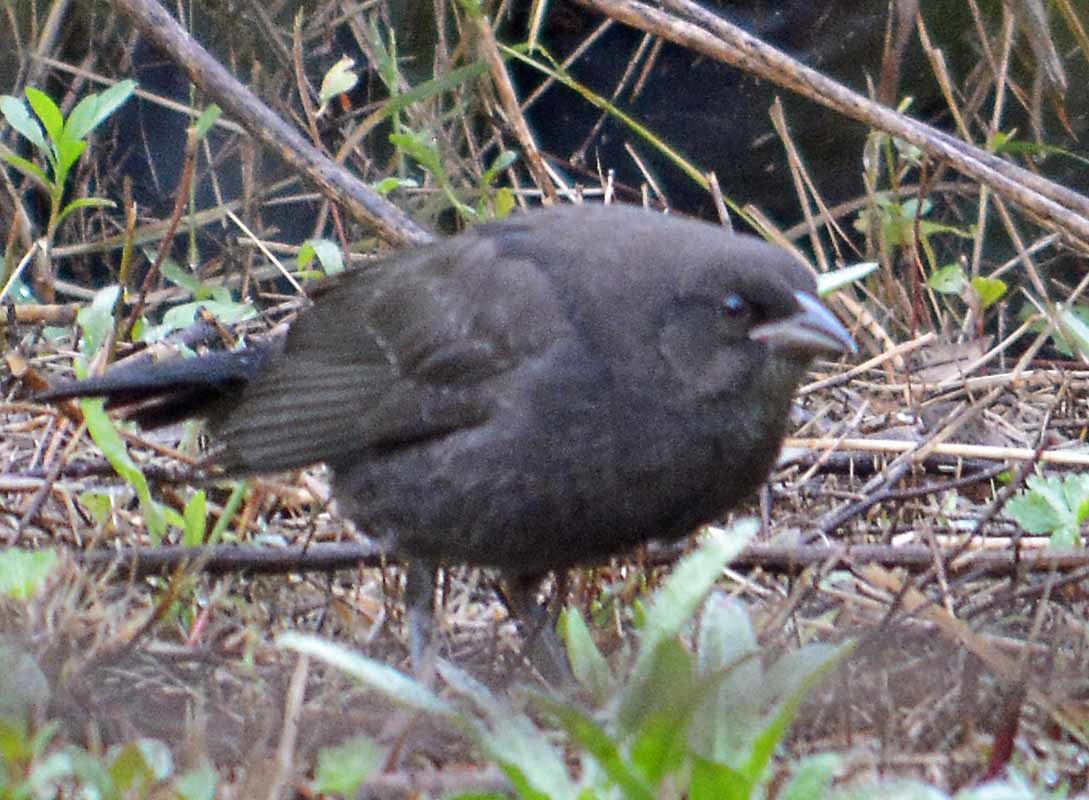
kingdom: Animalia
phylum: Chordata
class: Aves
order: Passeriformes
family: Icteridae
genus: Molothrus
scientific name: Molothrus aeneus
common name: Bronzed cowbird
